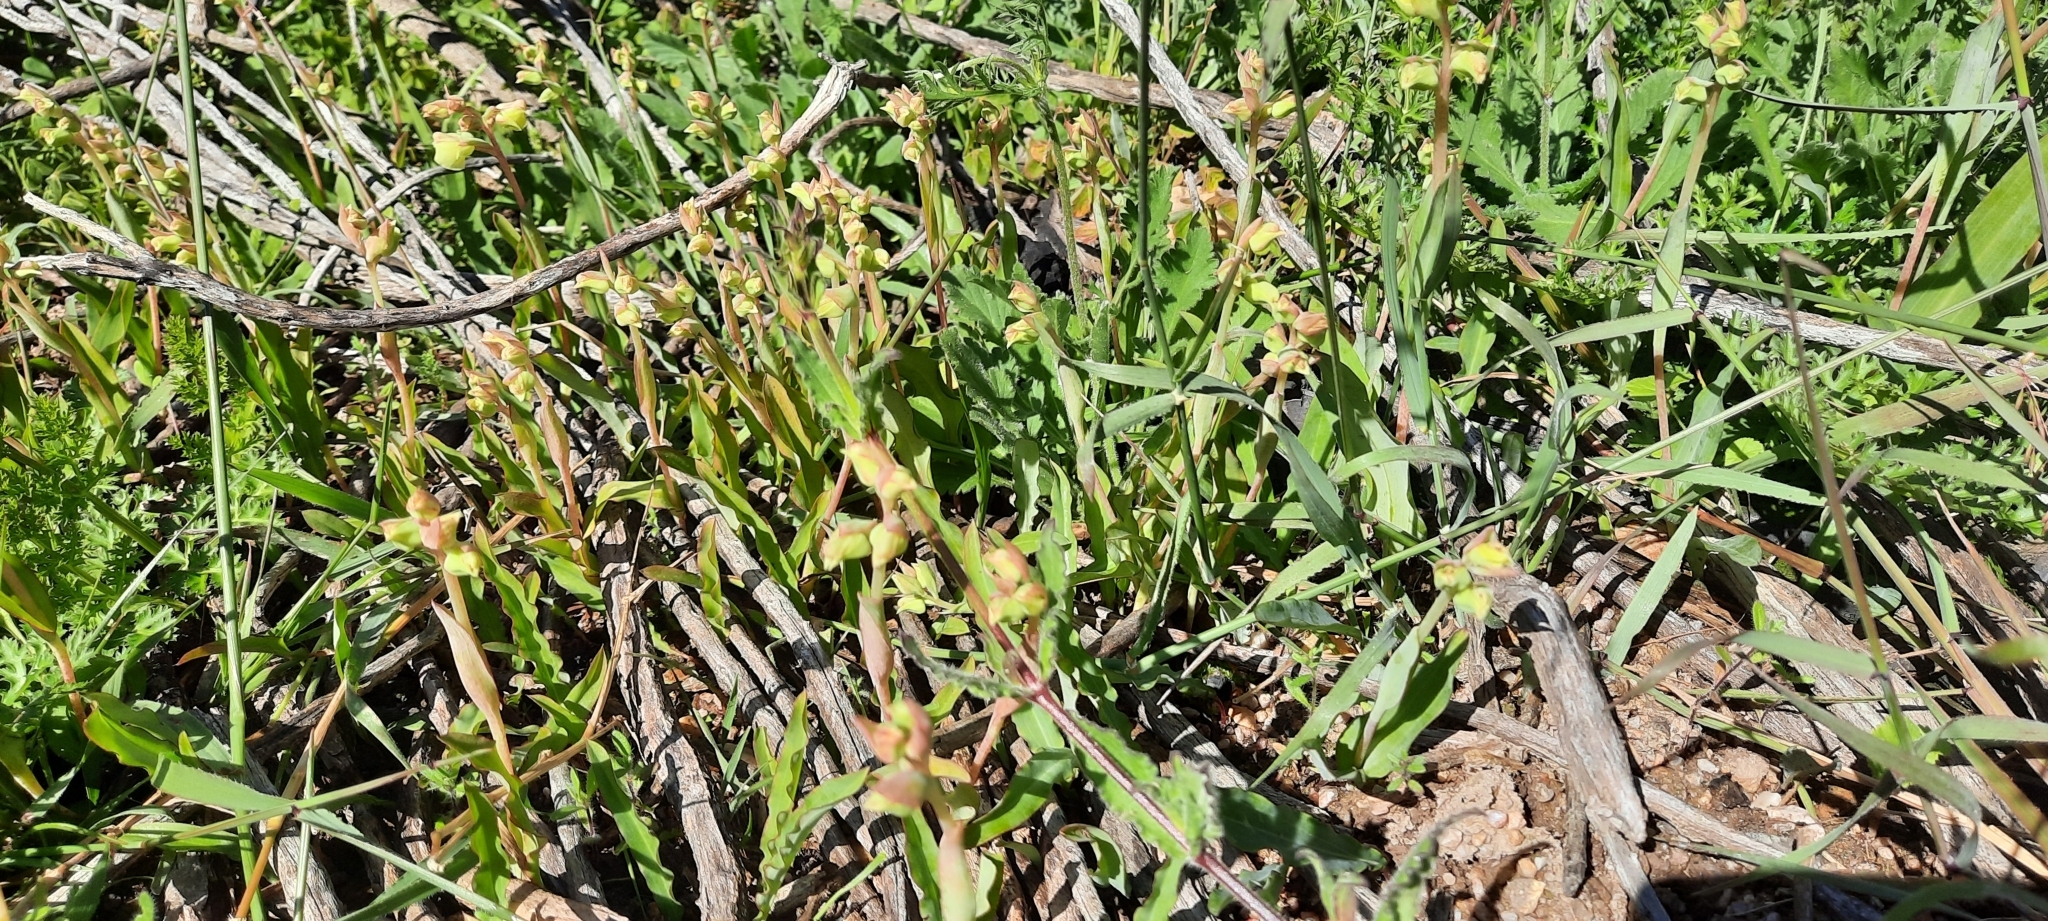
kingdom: Plantae
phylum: Tracheophyta
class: Liliopsida
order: Asparagales
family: Orchidaceae
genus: Pterygodium
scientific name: Pterygodium catholicum
